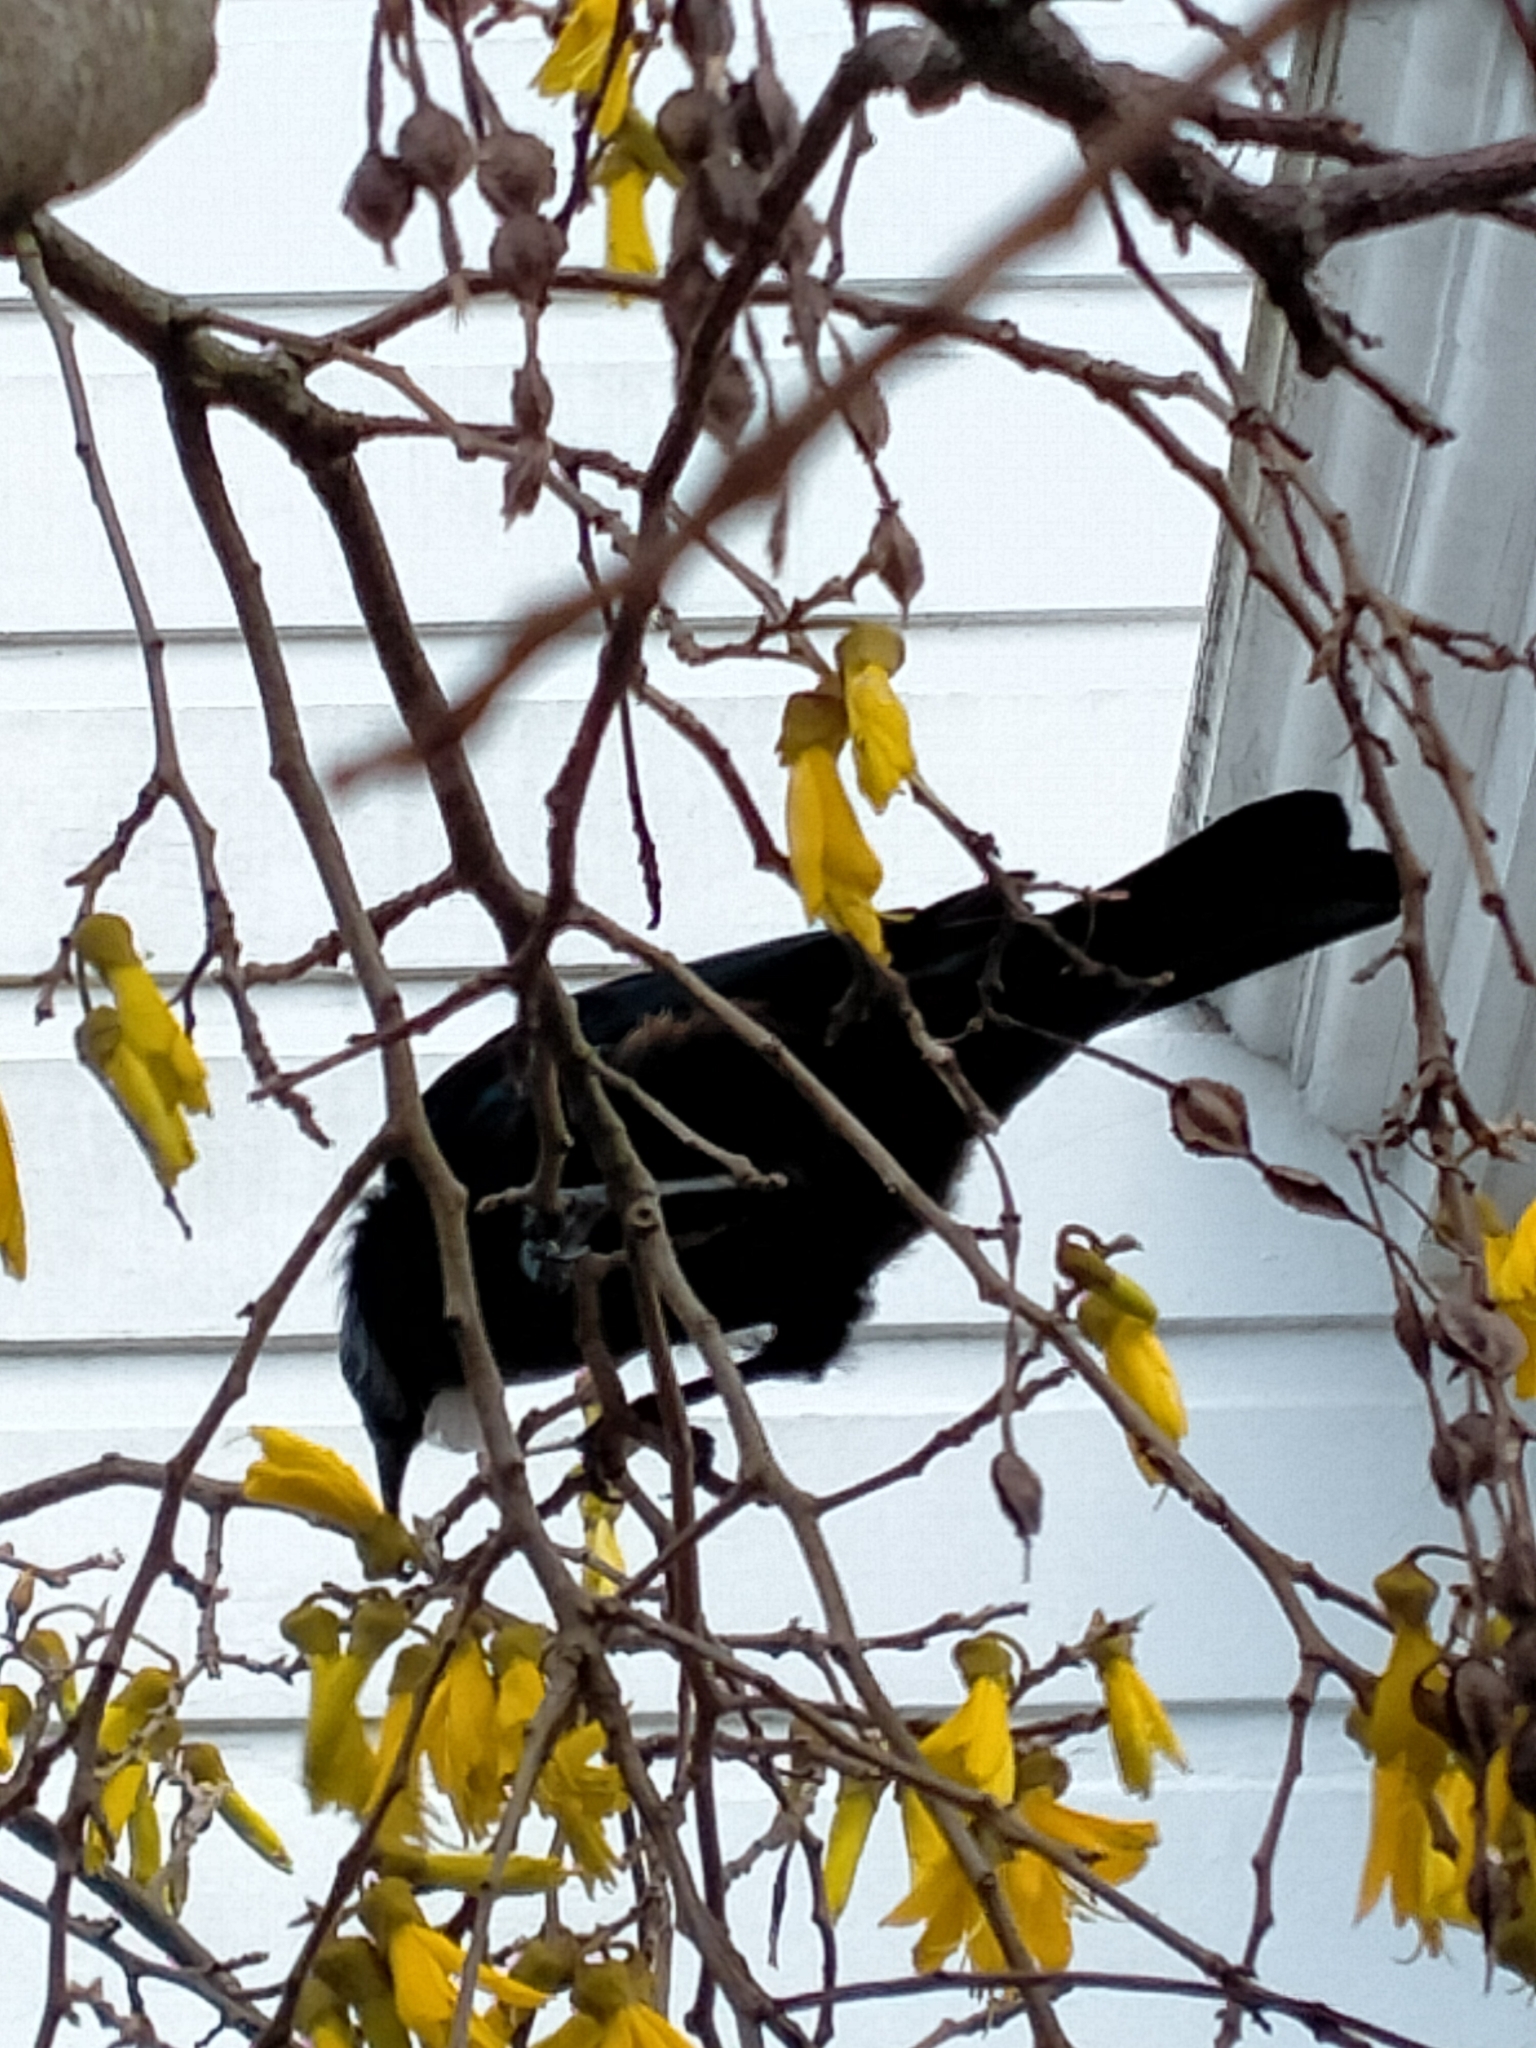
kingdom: Animalia
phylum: Chordata
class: Aves
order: Passeriformes
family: Meliphagidae
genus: Prosthemadera
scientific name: Prosthemadera novaeseelandiae
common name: Tui
